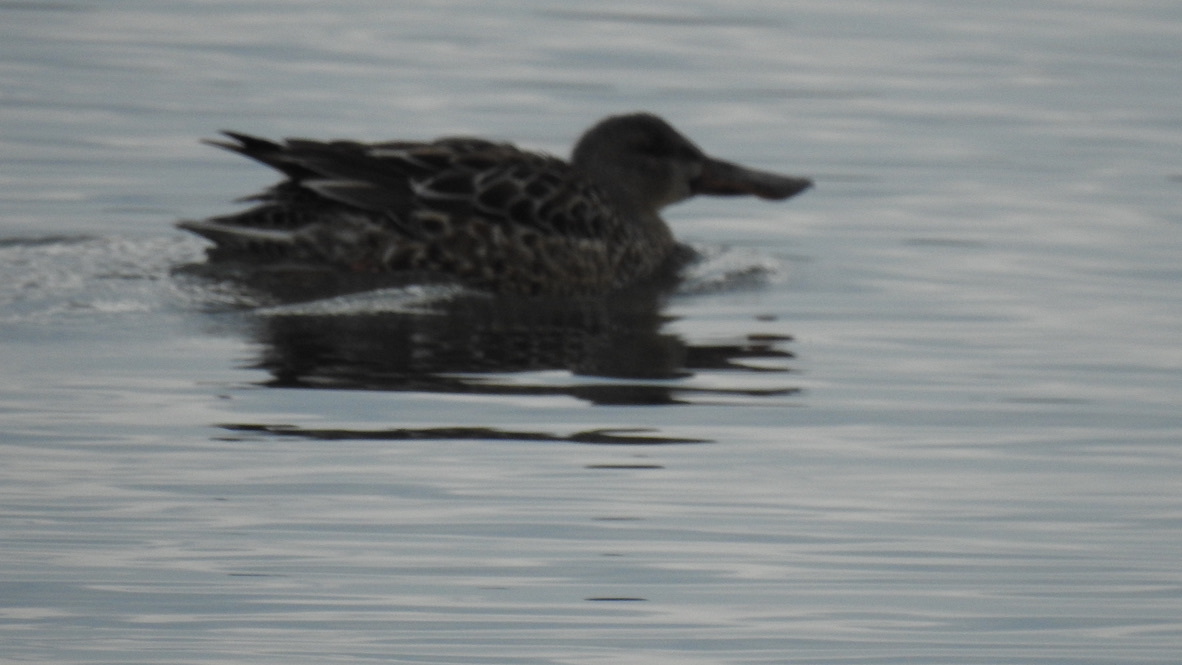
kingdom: Animalia
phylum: Chordata
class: Aves
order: Anseriformes
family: Anatidae
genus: Spatula
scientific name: Spatula clypeata
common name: Northern shoveler
